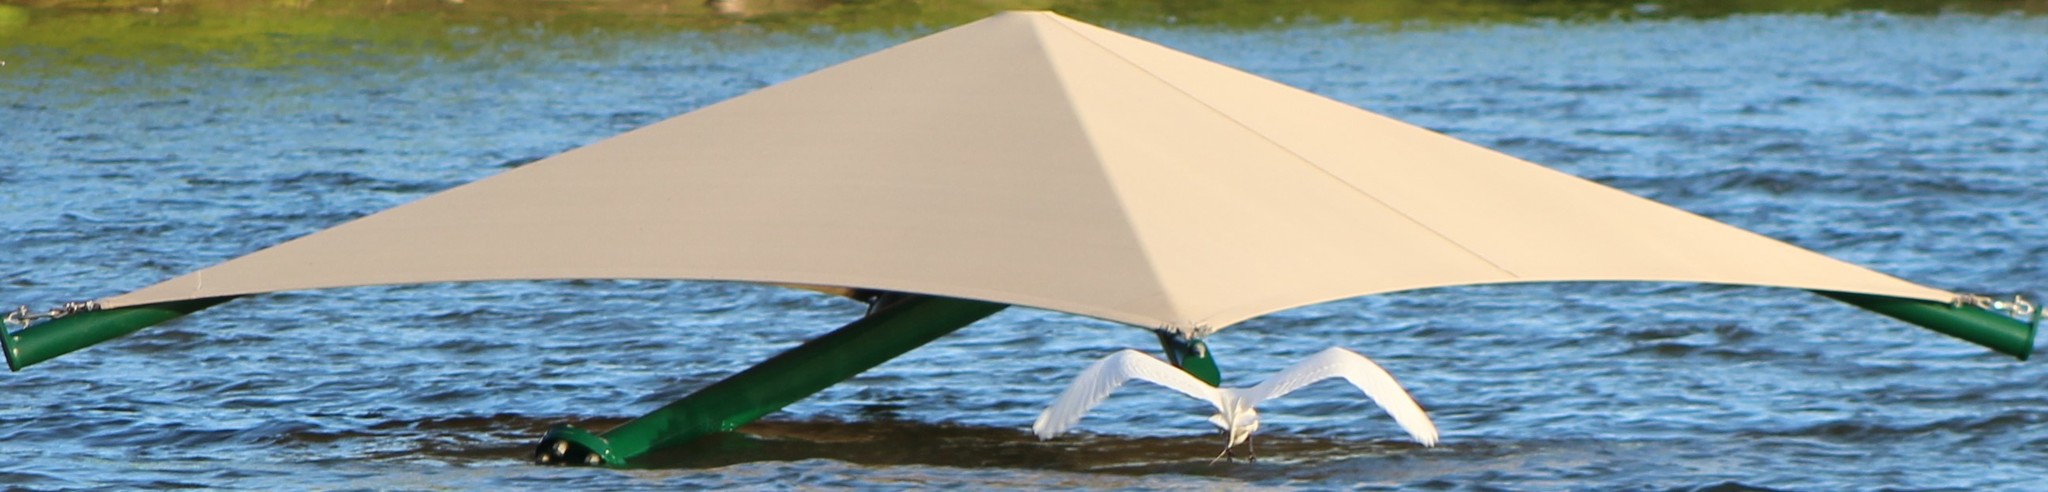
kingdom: Animalia
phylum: Chordata
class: Aves
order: Pelecaniformes
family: Ardeidae
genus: Ardea
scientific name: Ardea alba
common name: Great egret
